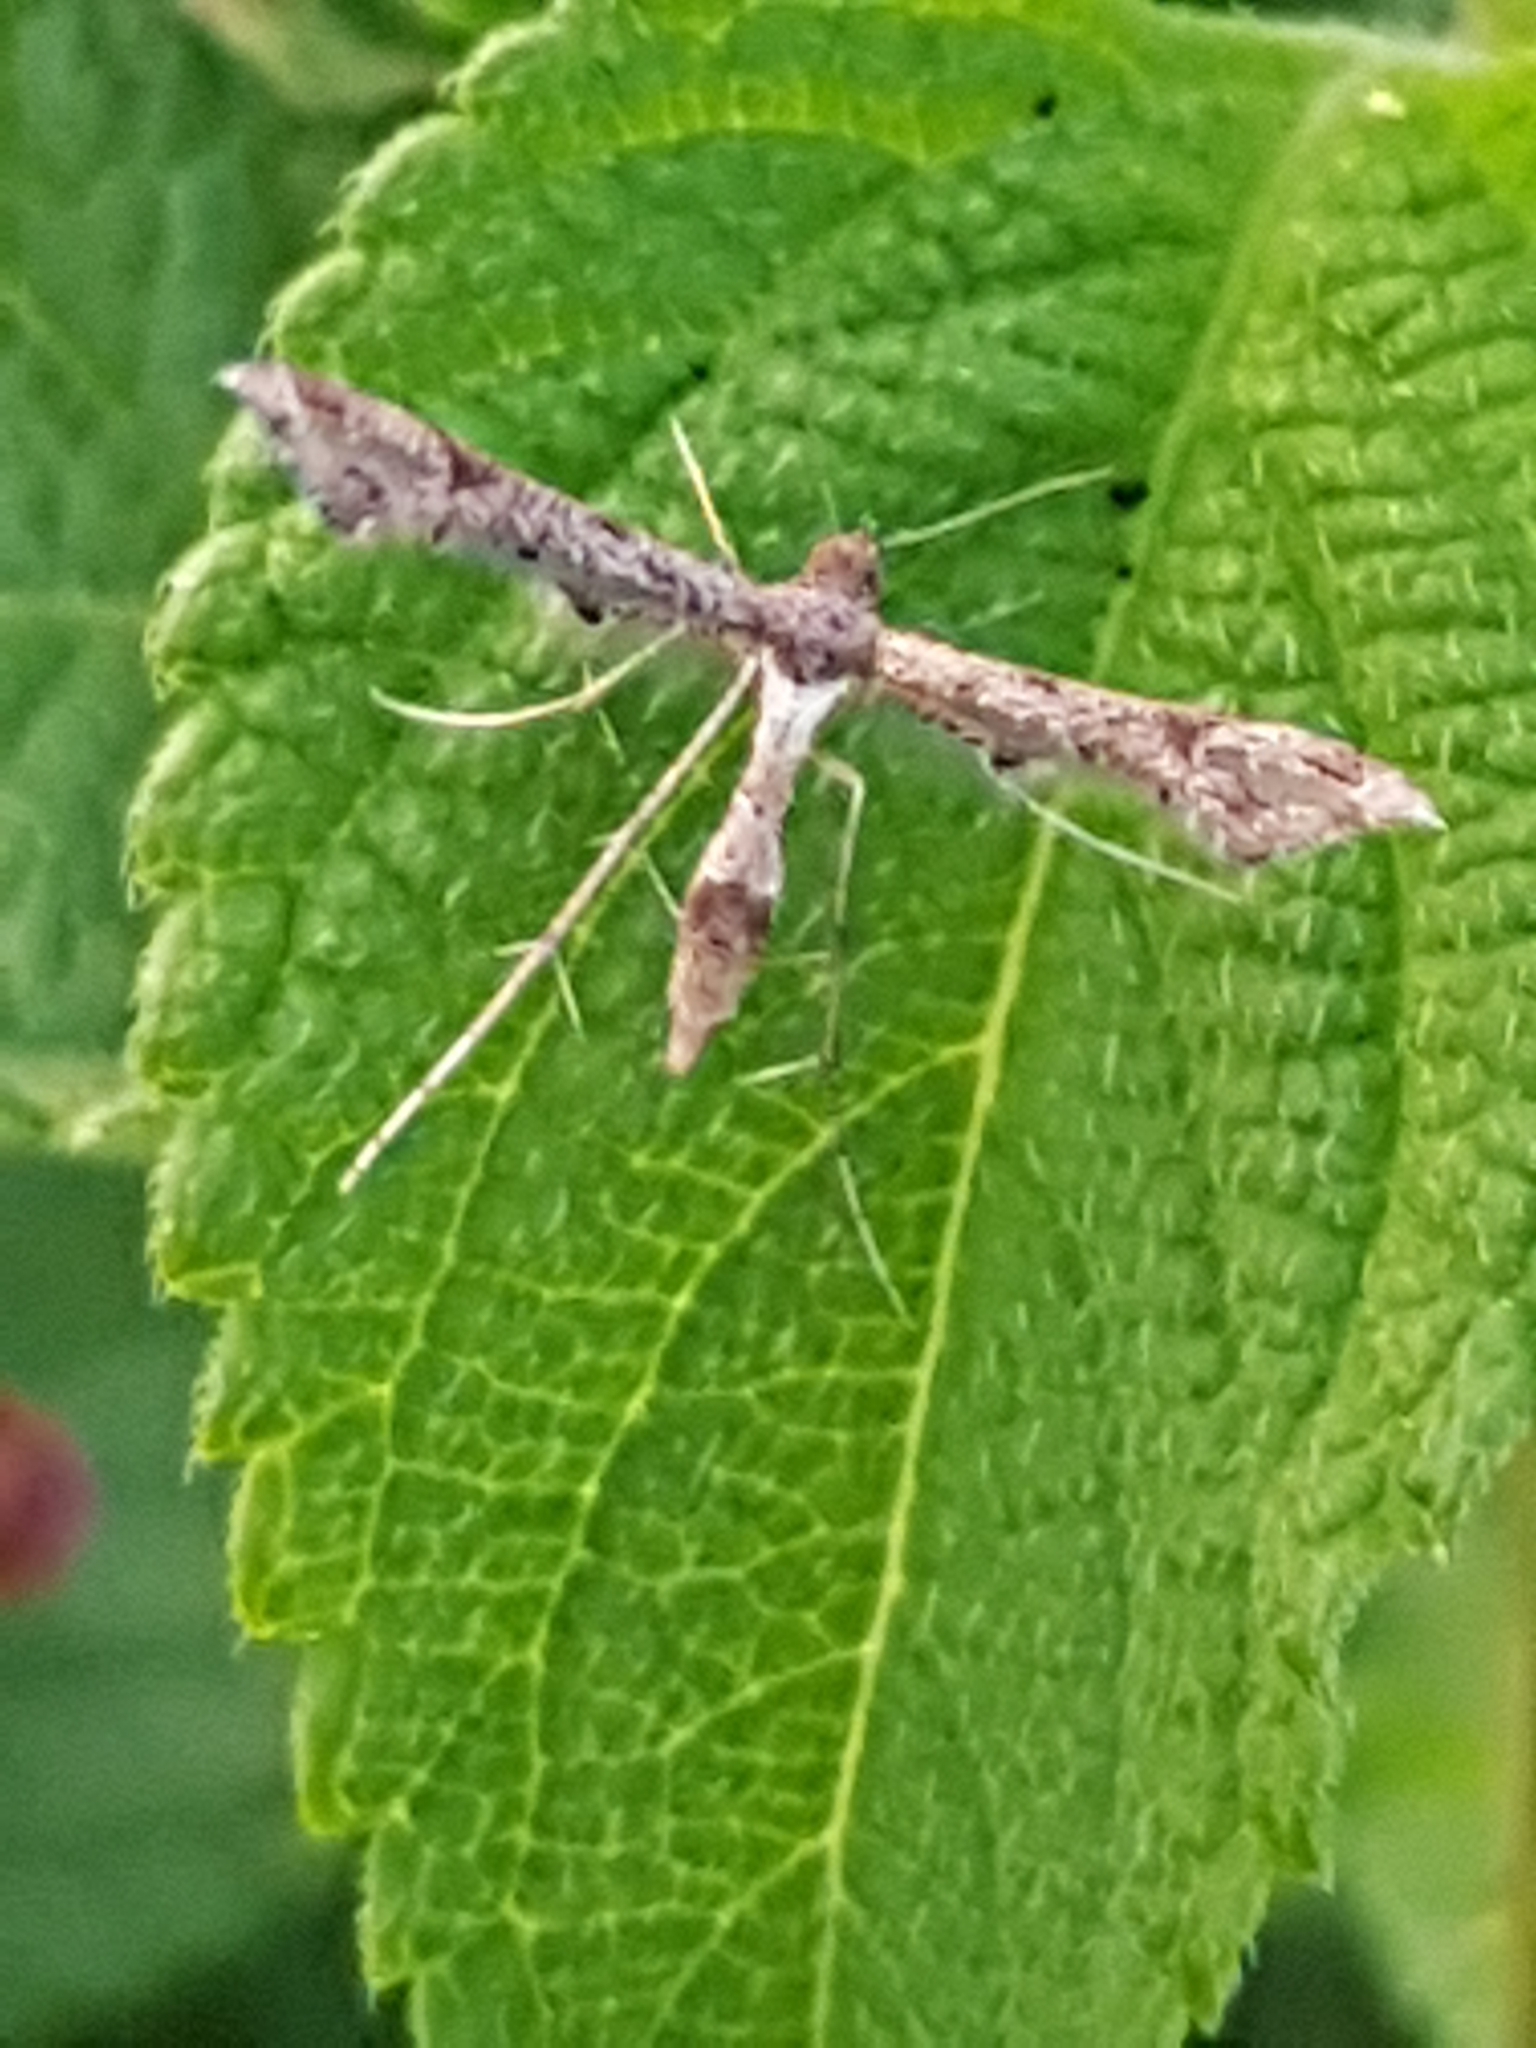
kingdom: Animalia
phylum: Arthropoda
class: Insecta
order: Lepidoptera
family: Pterophoridae
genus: Lantanophaga
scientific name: Lantanophaga pusillidactylus
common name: Moth
